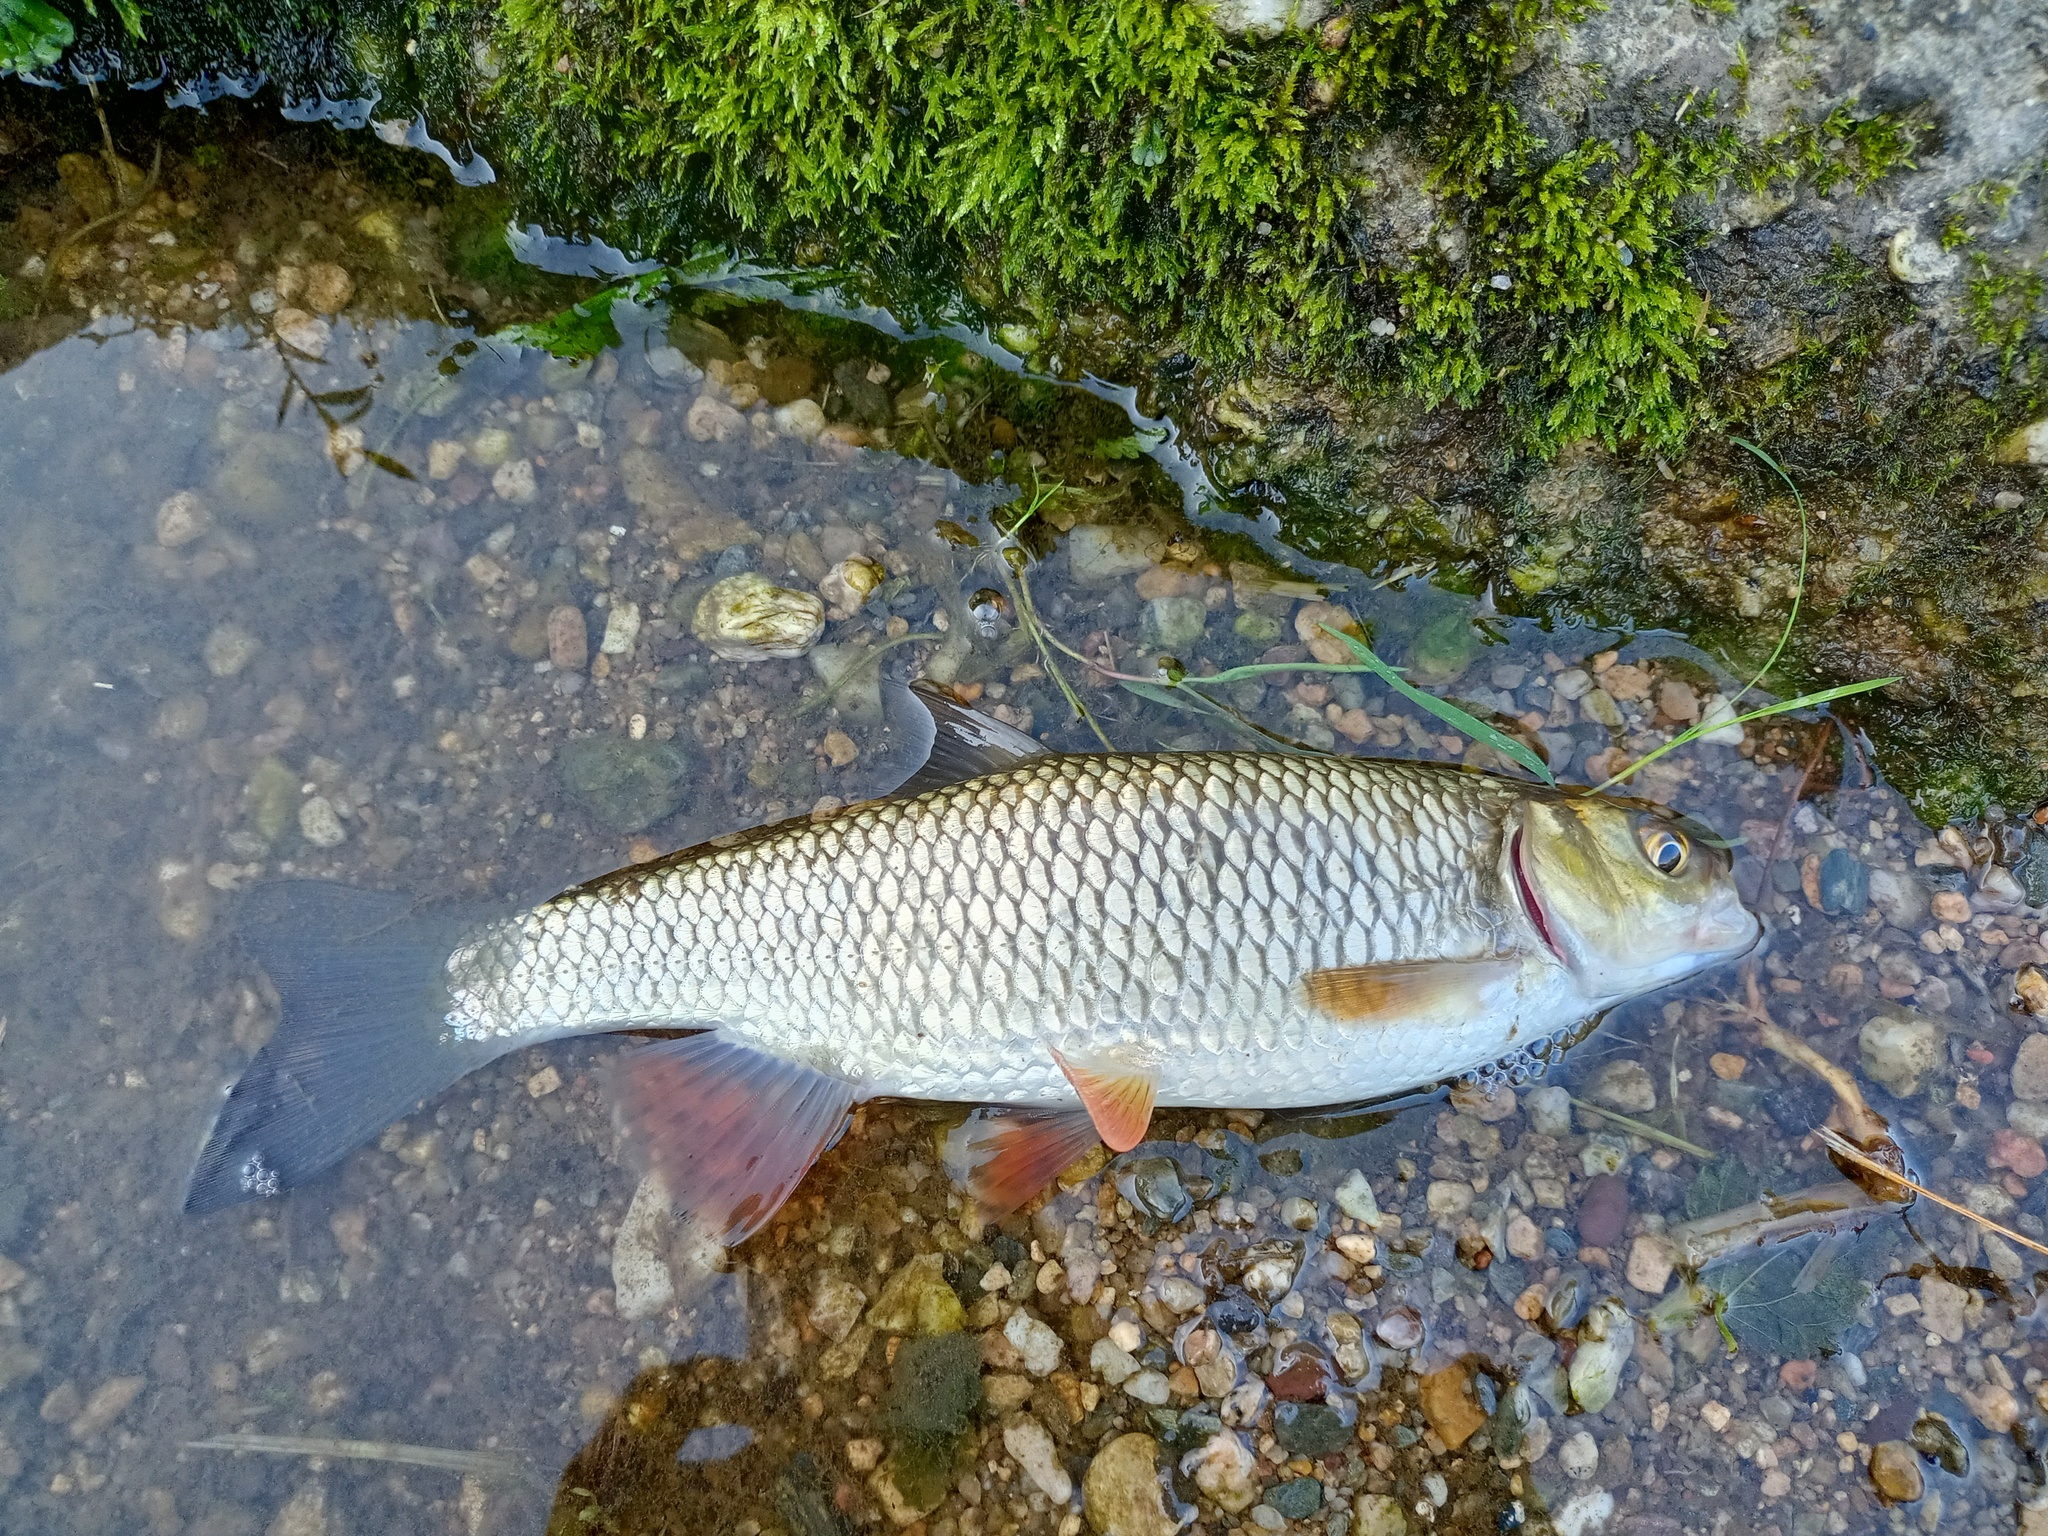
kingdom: Animalia
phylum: Chordata
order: Cypriniformes
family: Cyprinidae
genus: Squalius
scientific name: Squalius cephalus
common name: Chub
